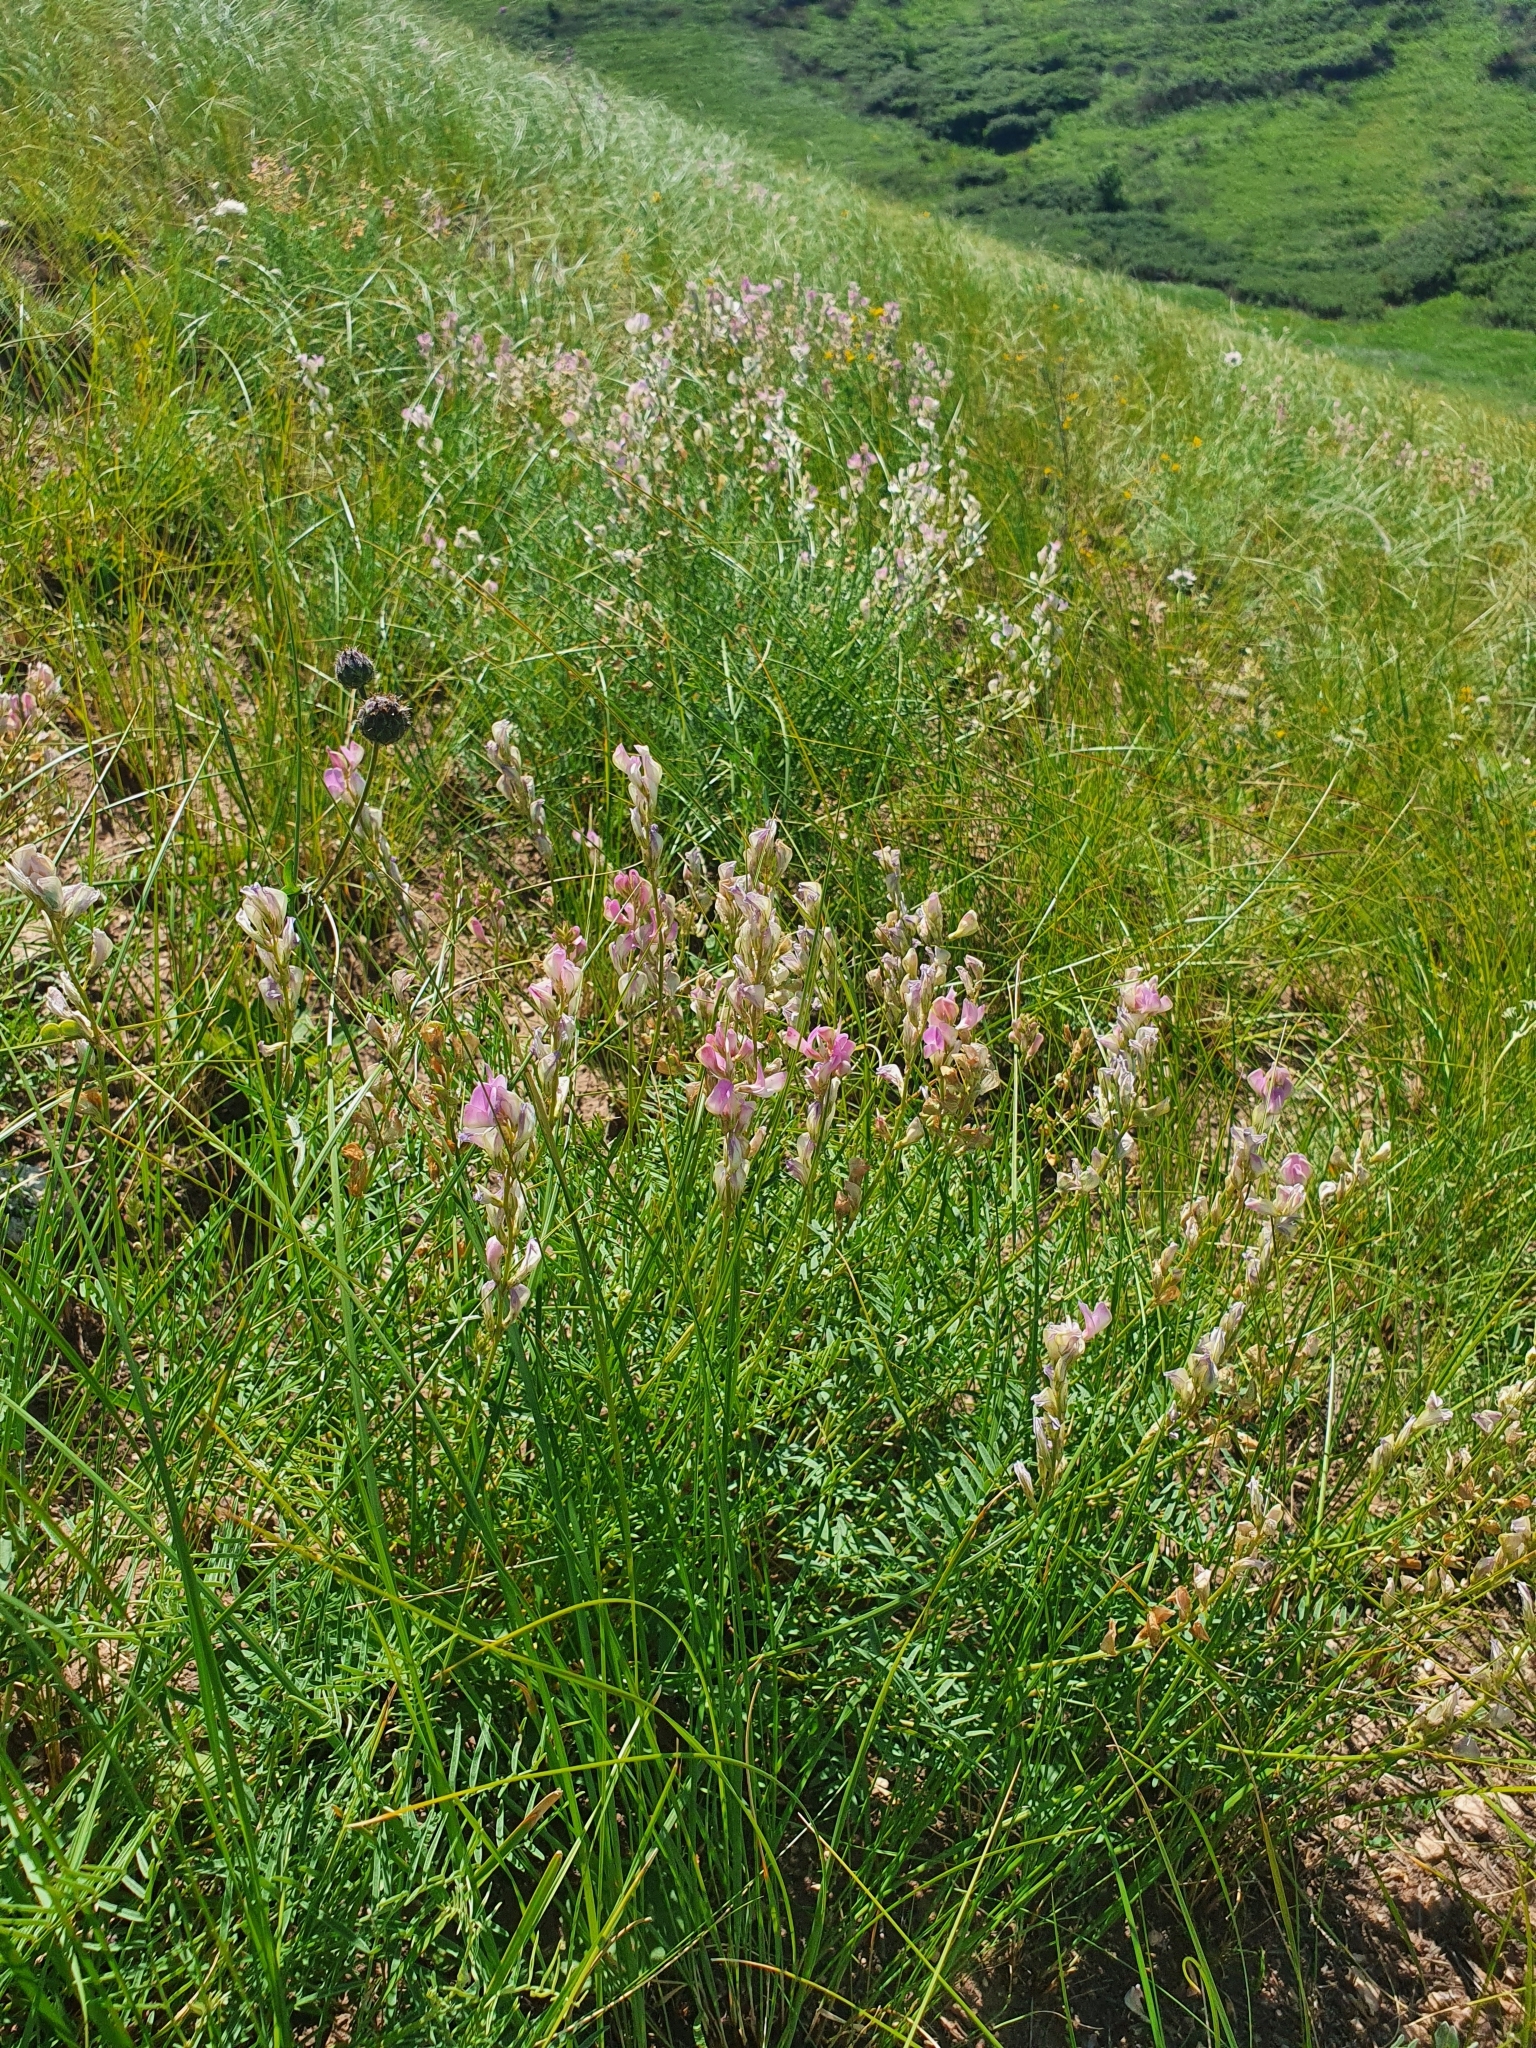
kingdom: Plantae
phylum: Tracheophyta
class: Magnoliopsida
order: Fabales
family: Fabaceae
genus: Hedysarum
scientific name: Hedysarum razoumovianum
